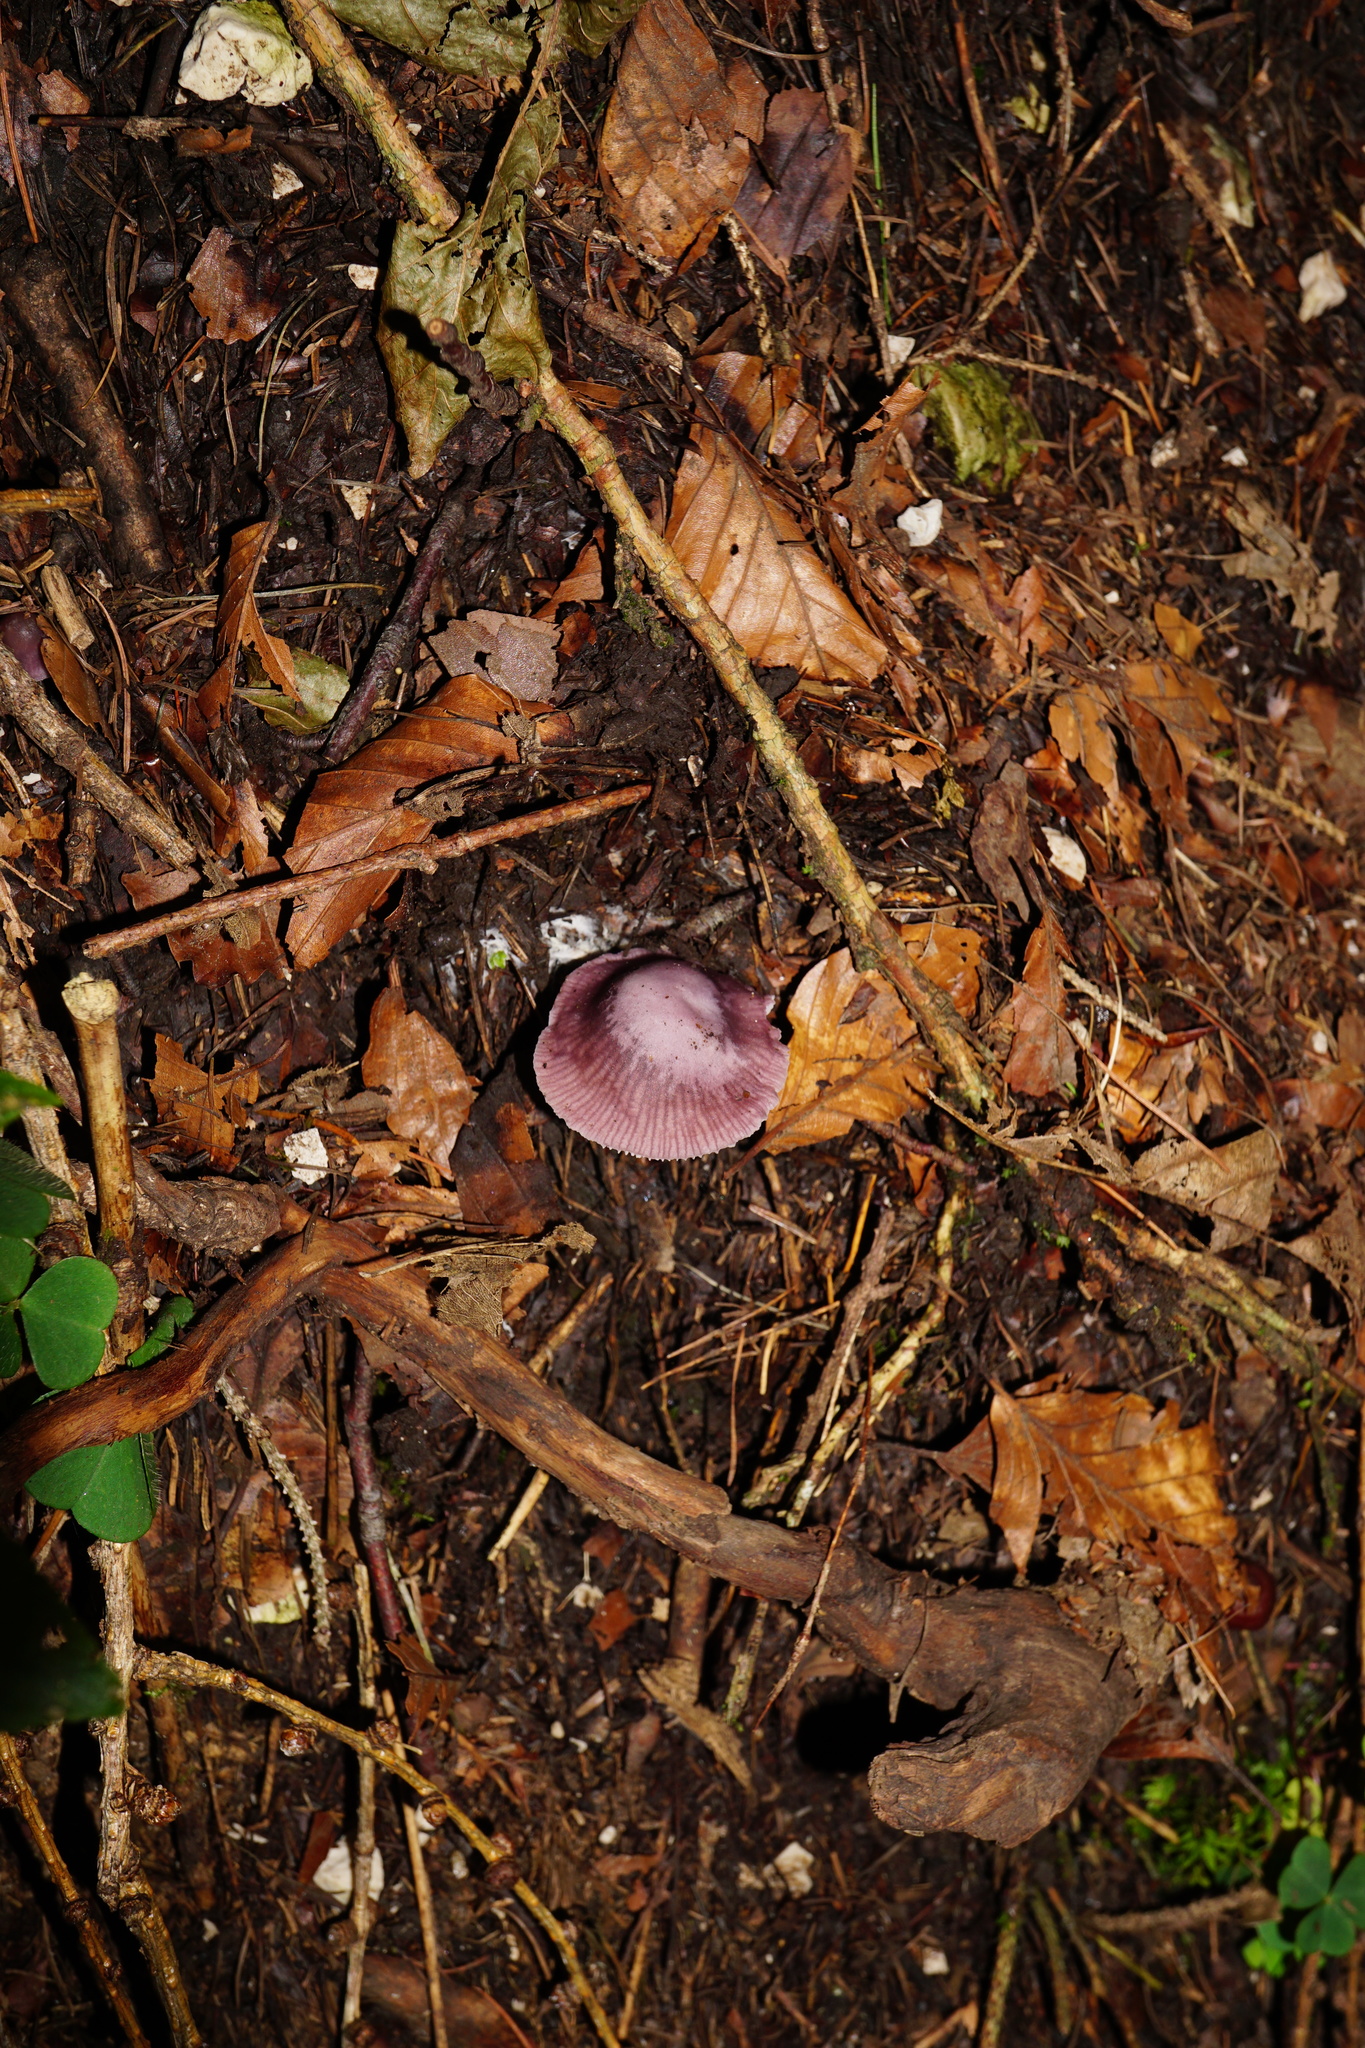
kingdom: Fungi
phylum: Basidiomycota
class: Agaricomycetes
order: Agaricales
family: Mycenaceae
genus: Mycena
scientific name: Mycena pura
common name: Lilac bonnet
